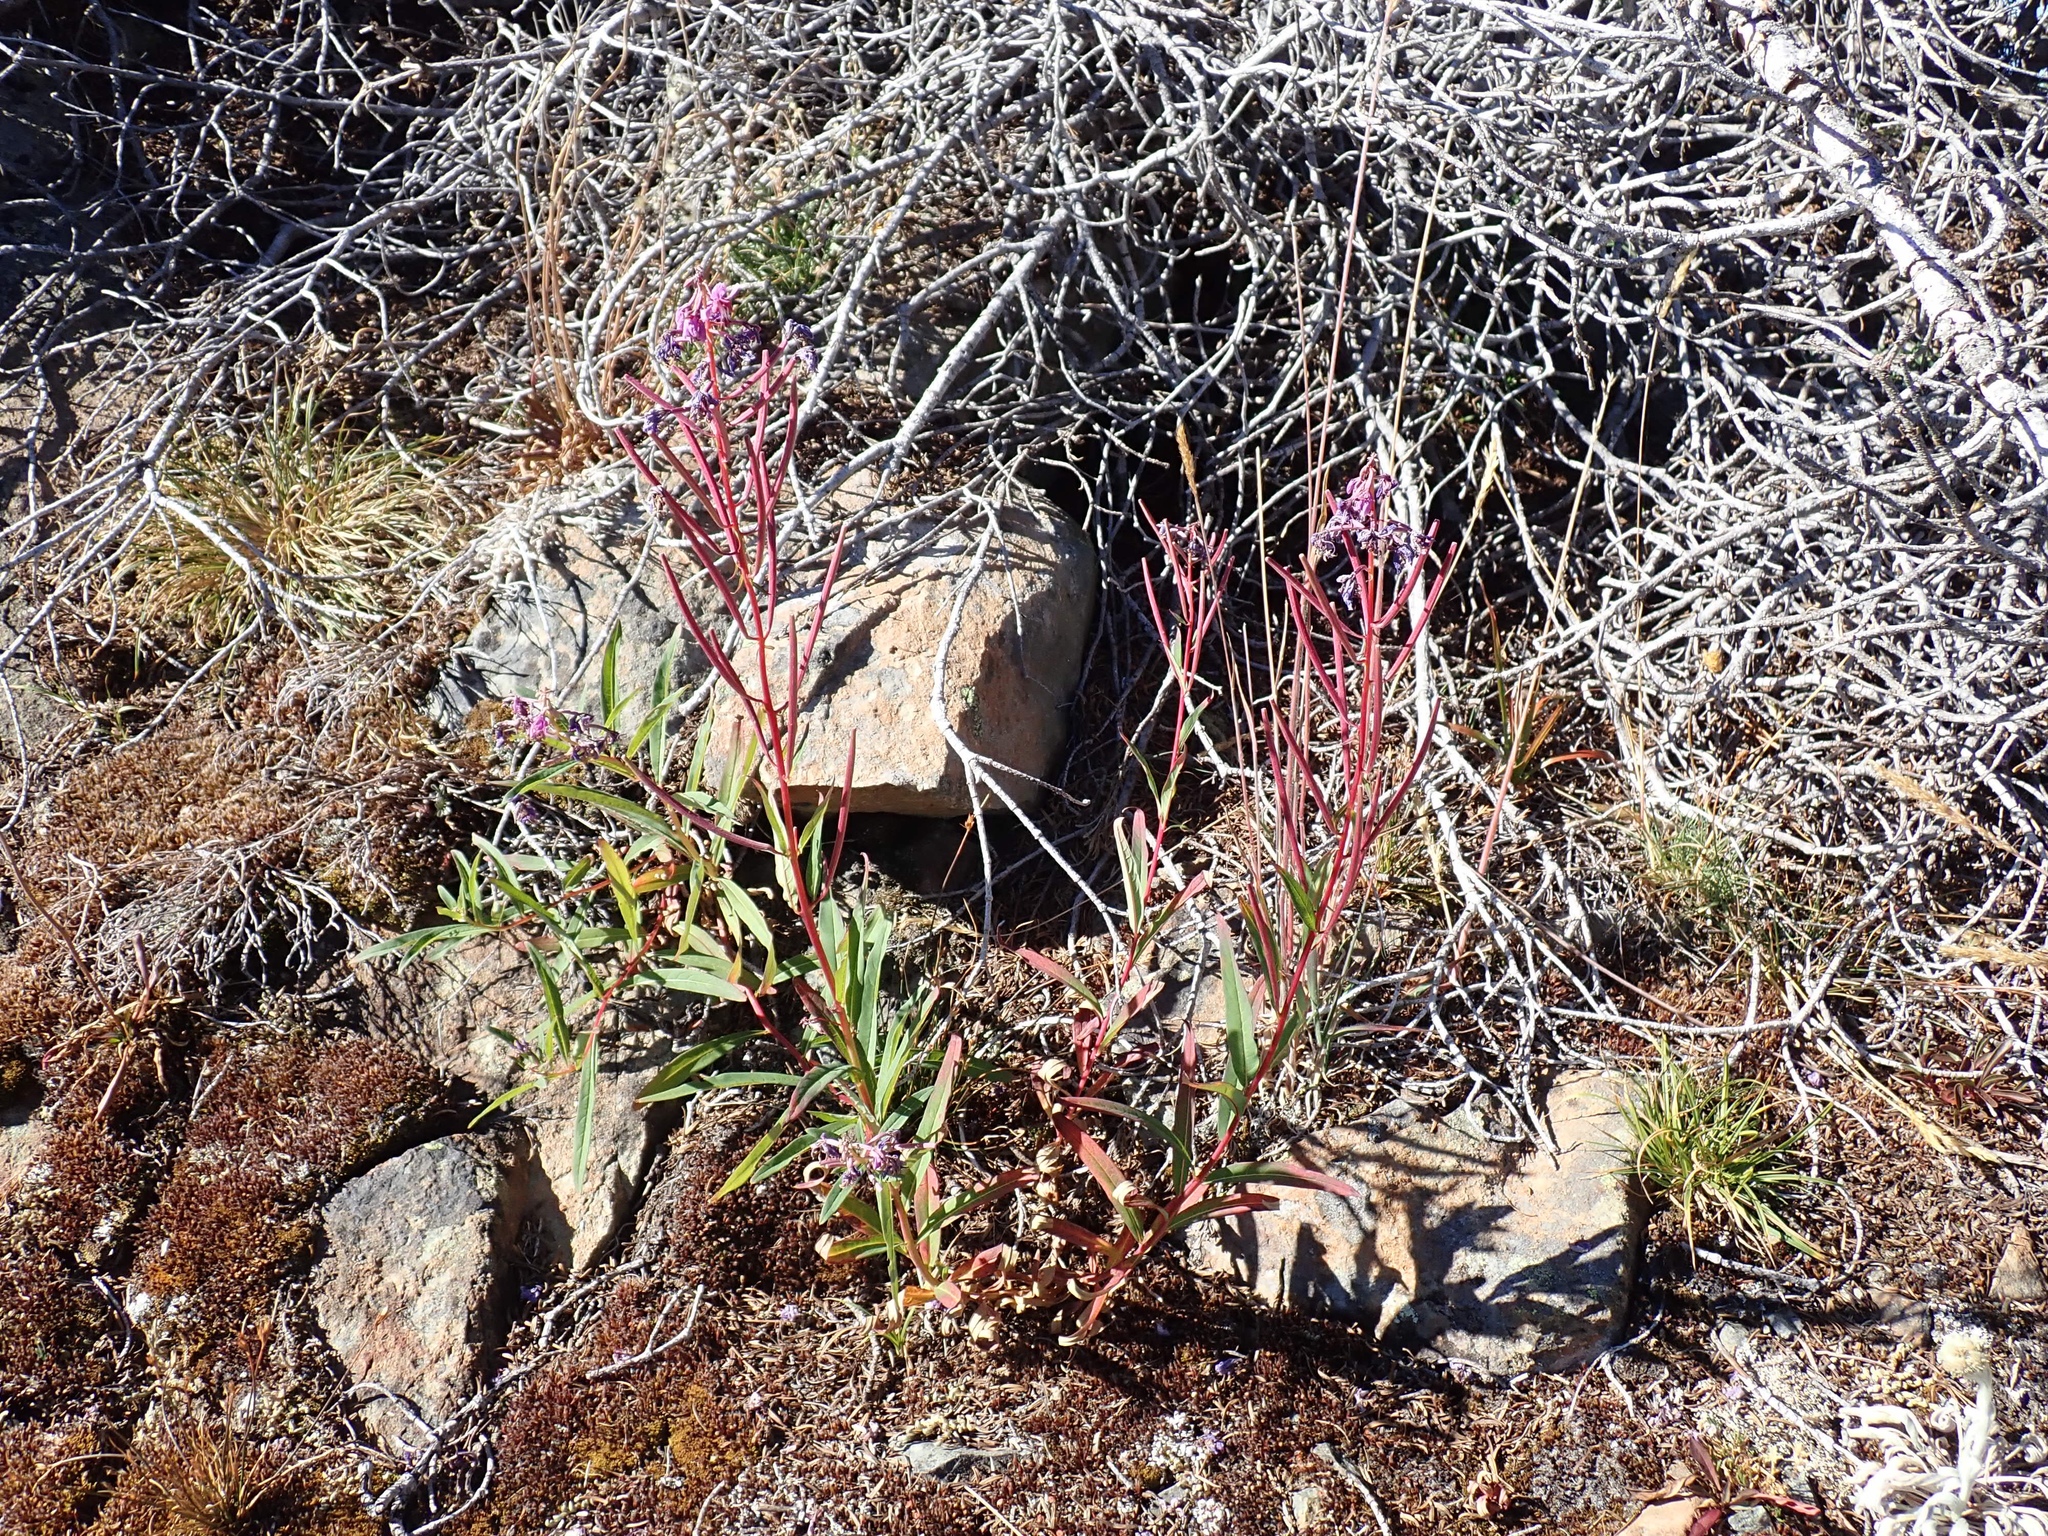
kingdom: Plantae
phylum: Tracheophyta
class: Magnoliopsida
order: Myrtales
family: Onagraceae
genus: Chamaenerion
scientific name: Chamaenerion angustifolium
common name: Fireweed
